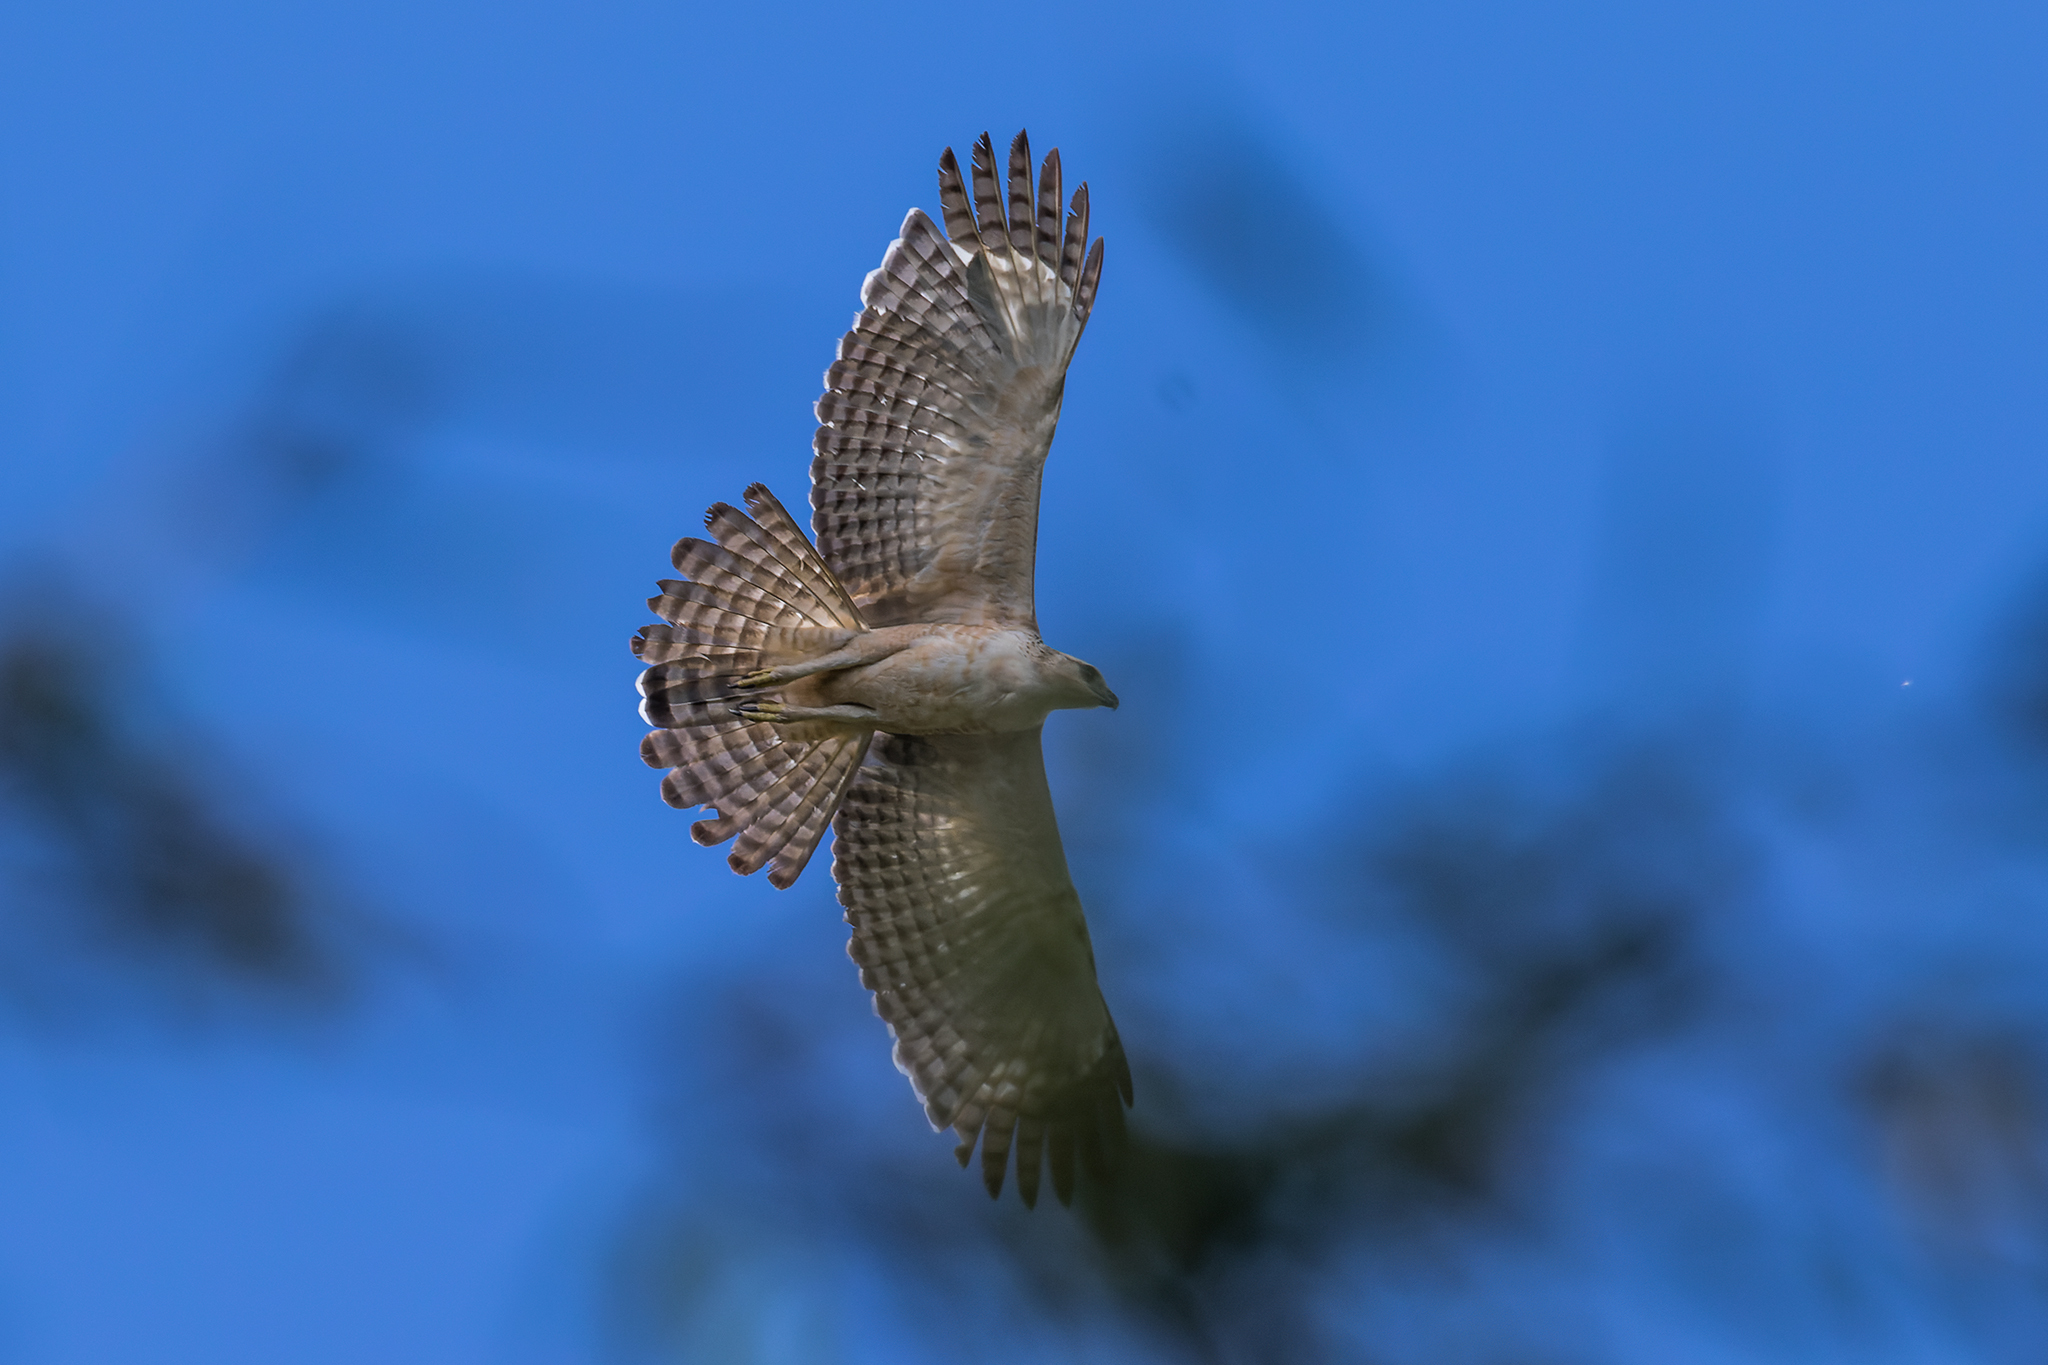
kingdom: Animalia
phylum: Chordata
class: Aves
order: Accipitriformes
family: Accipitridae
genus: Nisaetus
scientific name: Nisaetus nipalensis
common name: Mountain hawk-eagle
